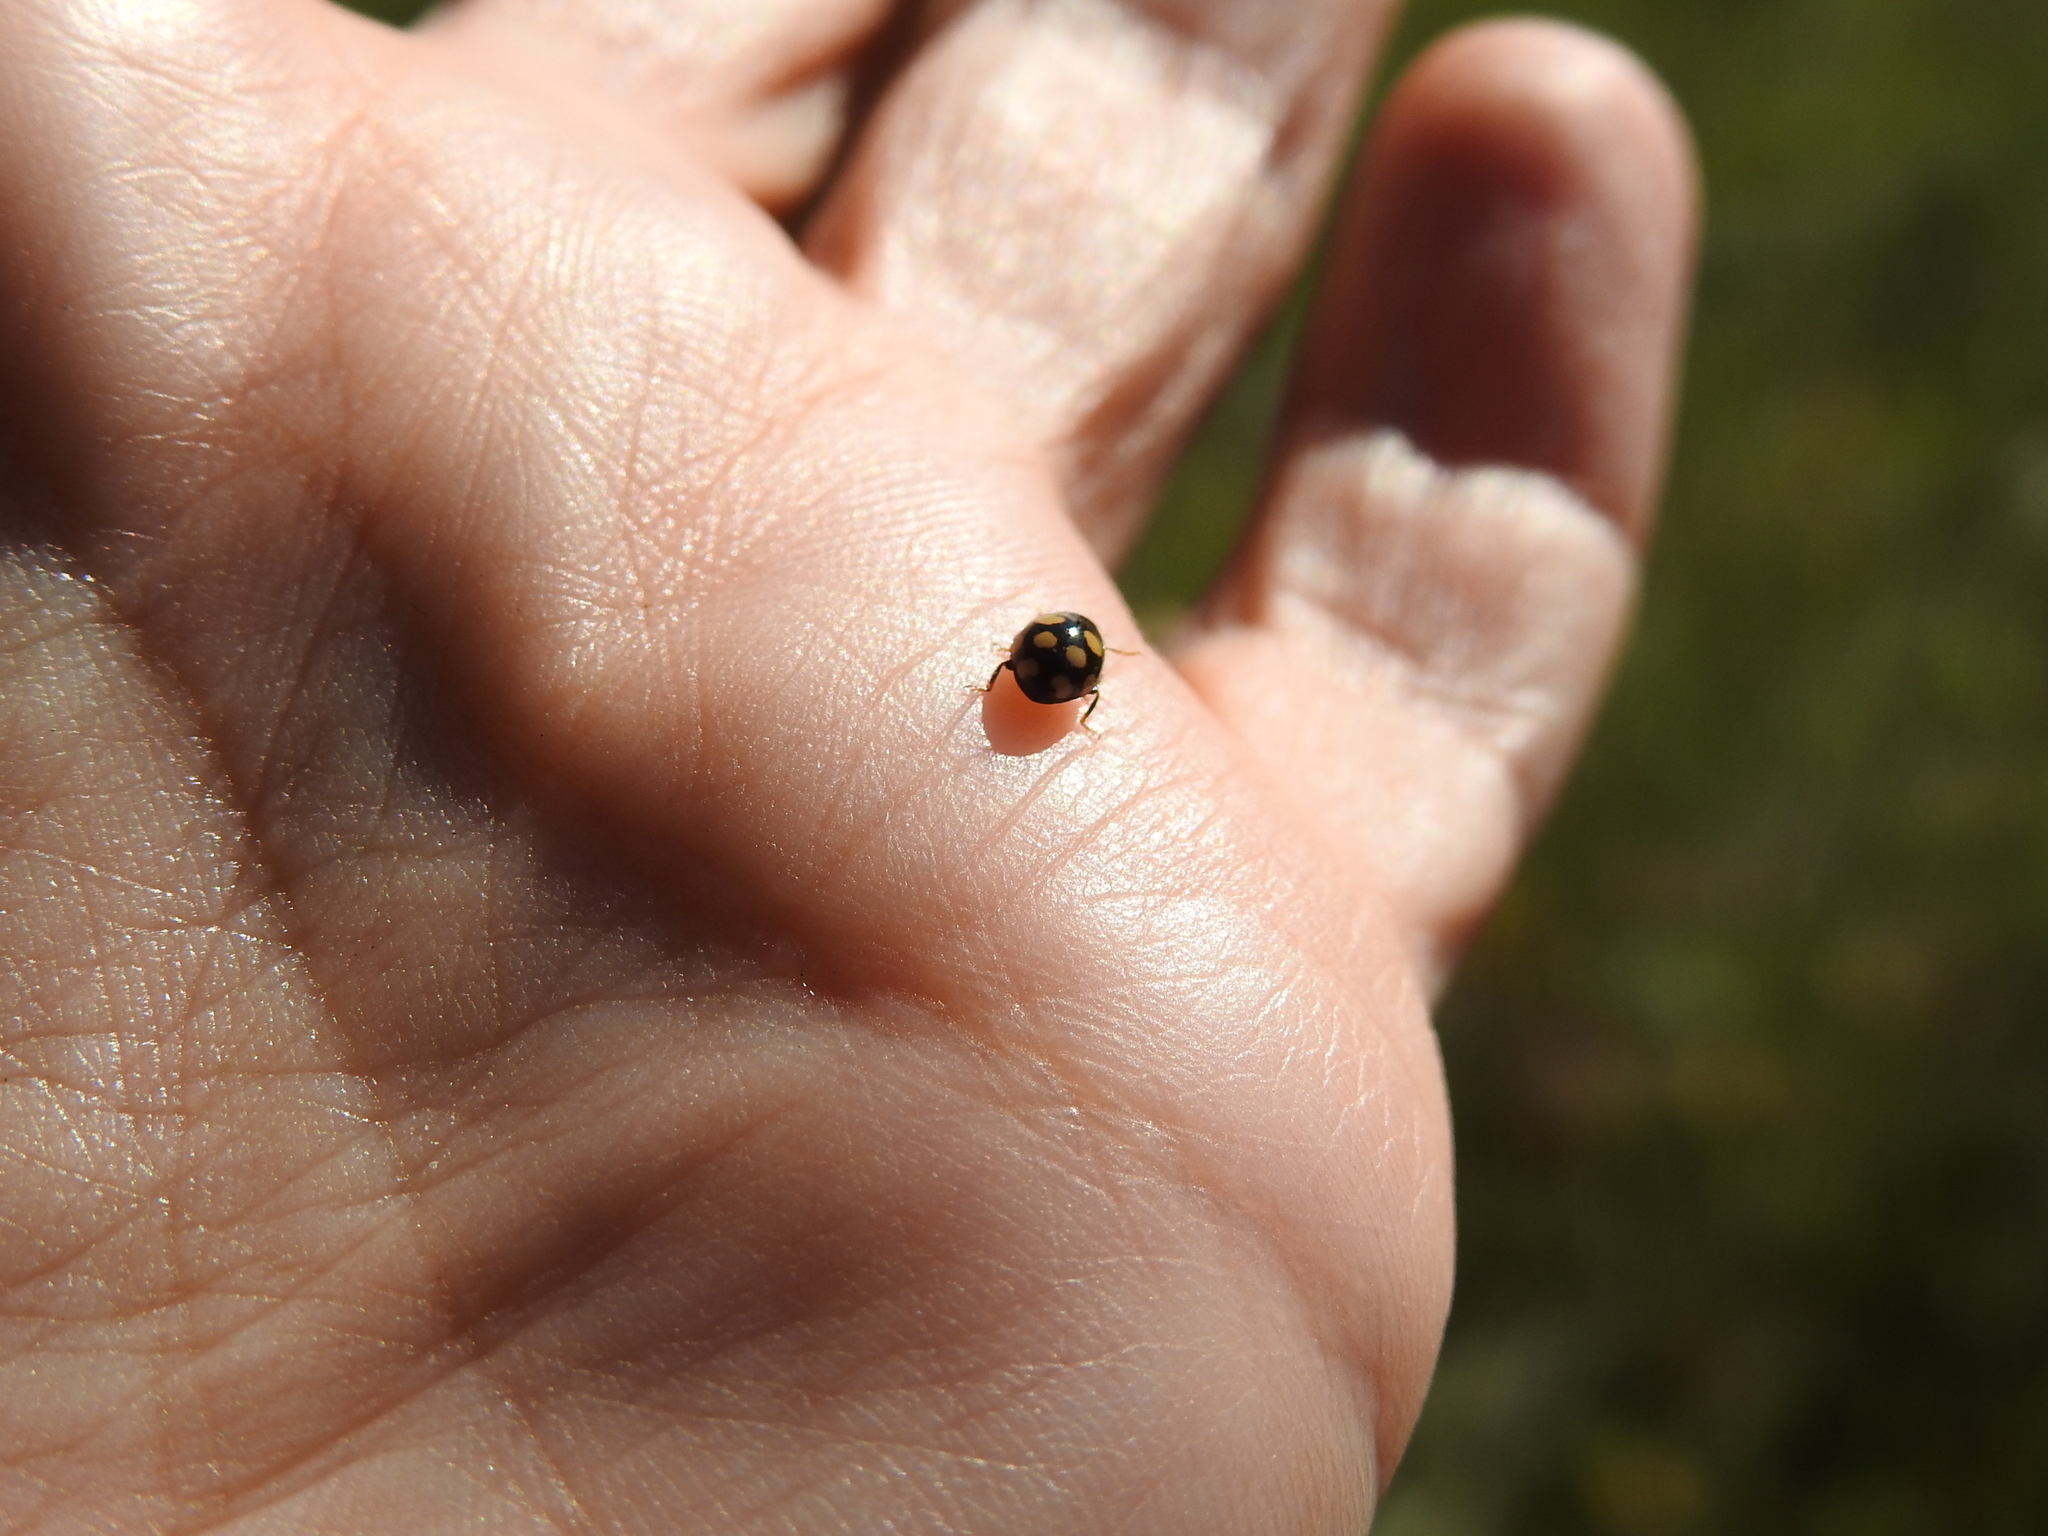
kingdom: Animalia
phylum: Arthropoda
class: Insecta
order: Coleoptera
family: Coccinellidae
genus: Coccinula
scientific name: Coccinula quatuordecimpustulata
